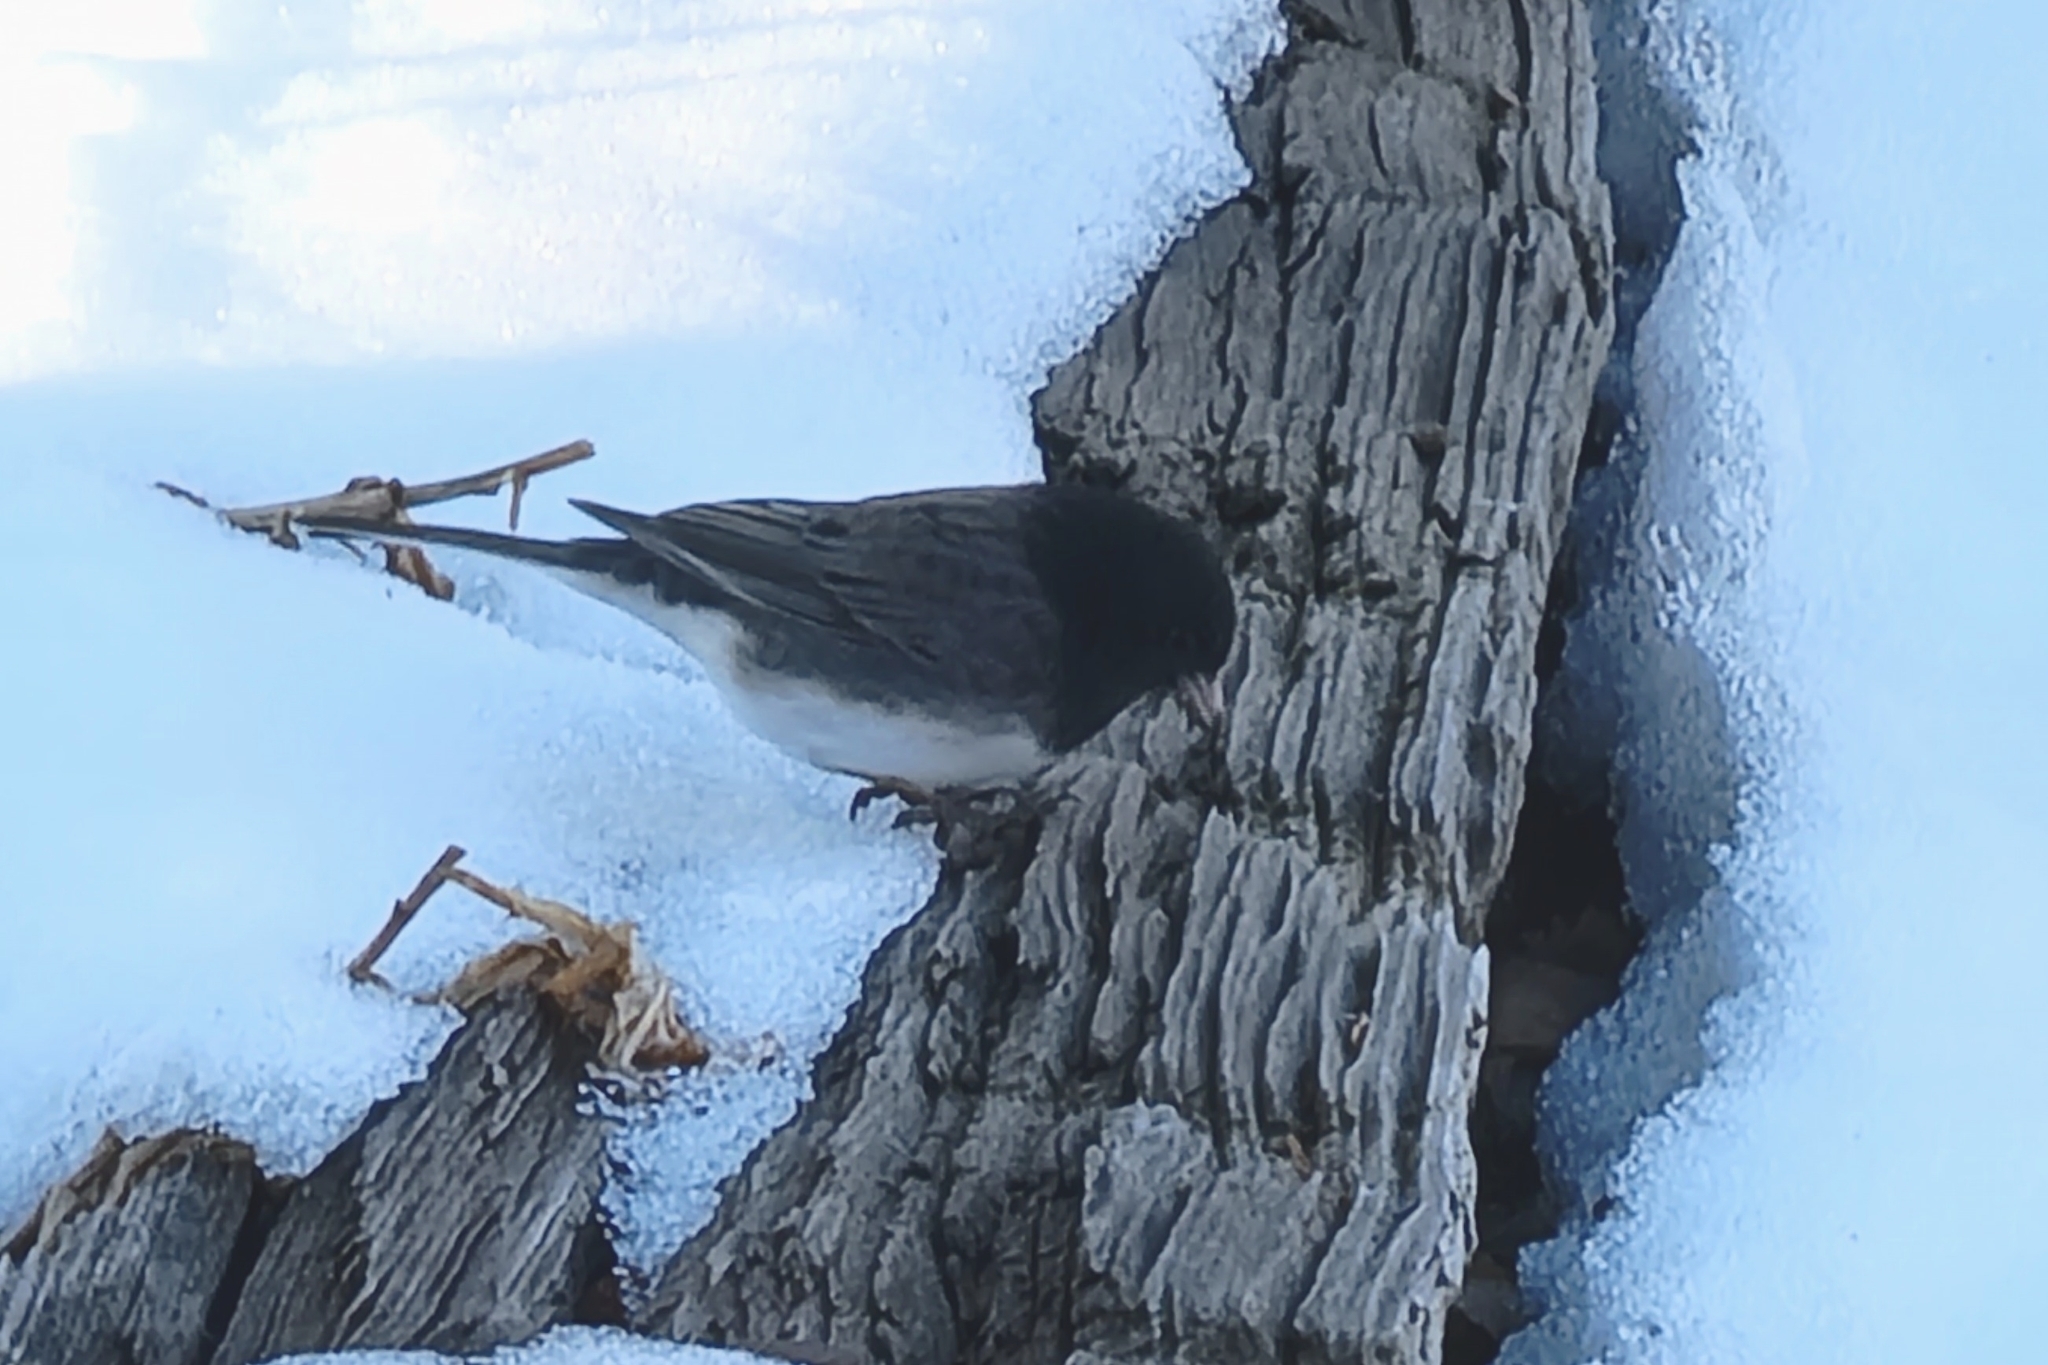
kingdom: Animalia
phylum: Chordata
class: Aves
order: Passeriformes
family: Passerellidae
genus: Junco
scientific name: Junco hyemalis
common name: Dark-eyed junco
